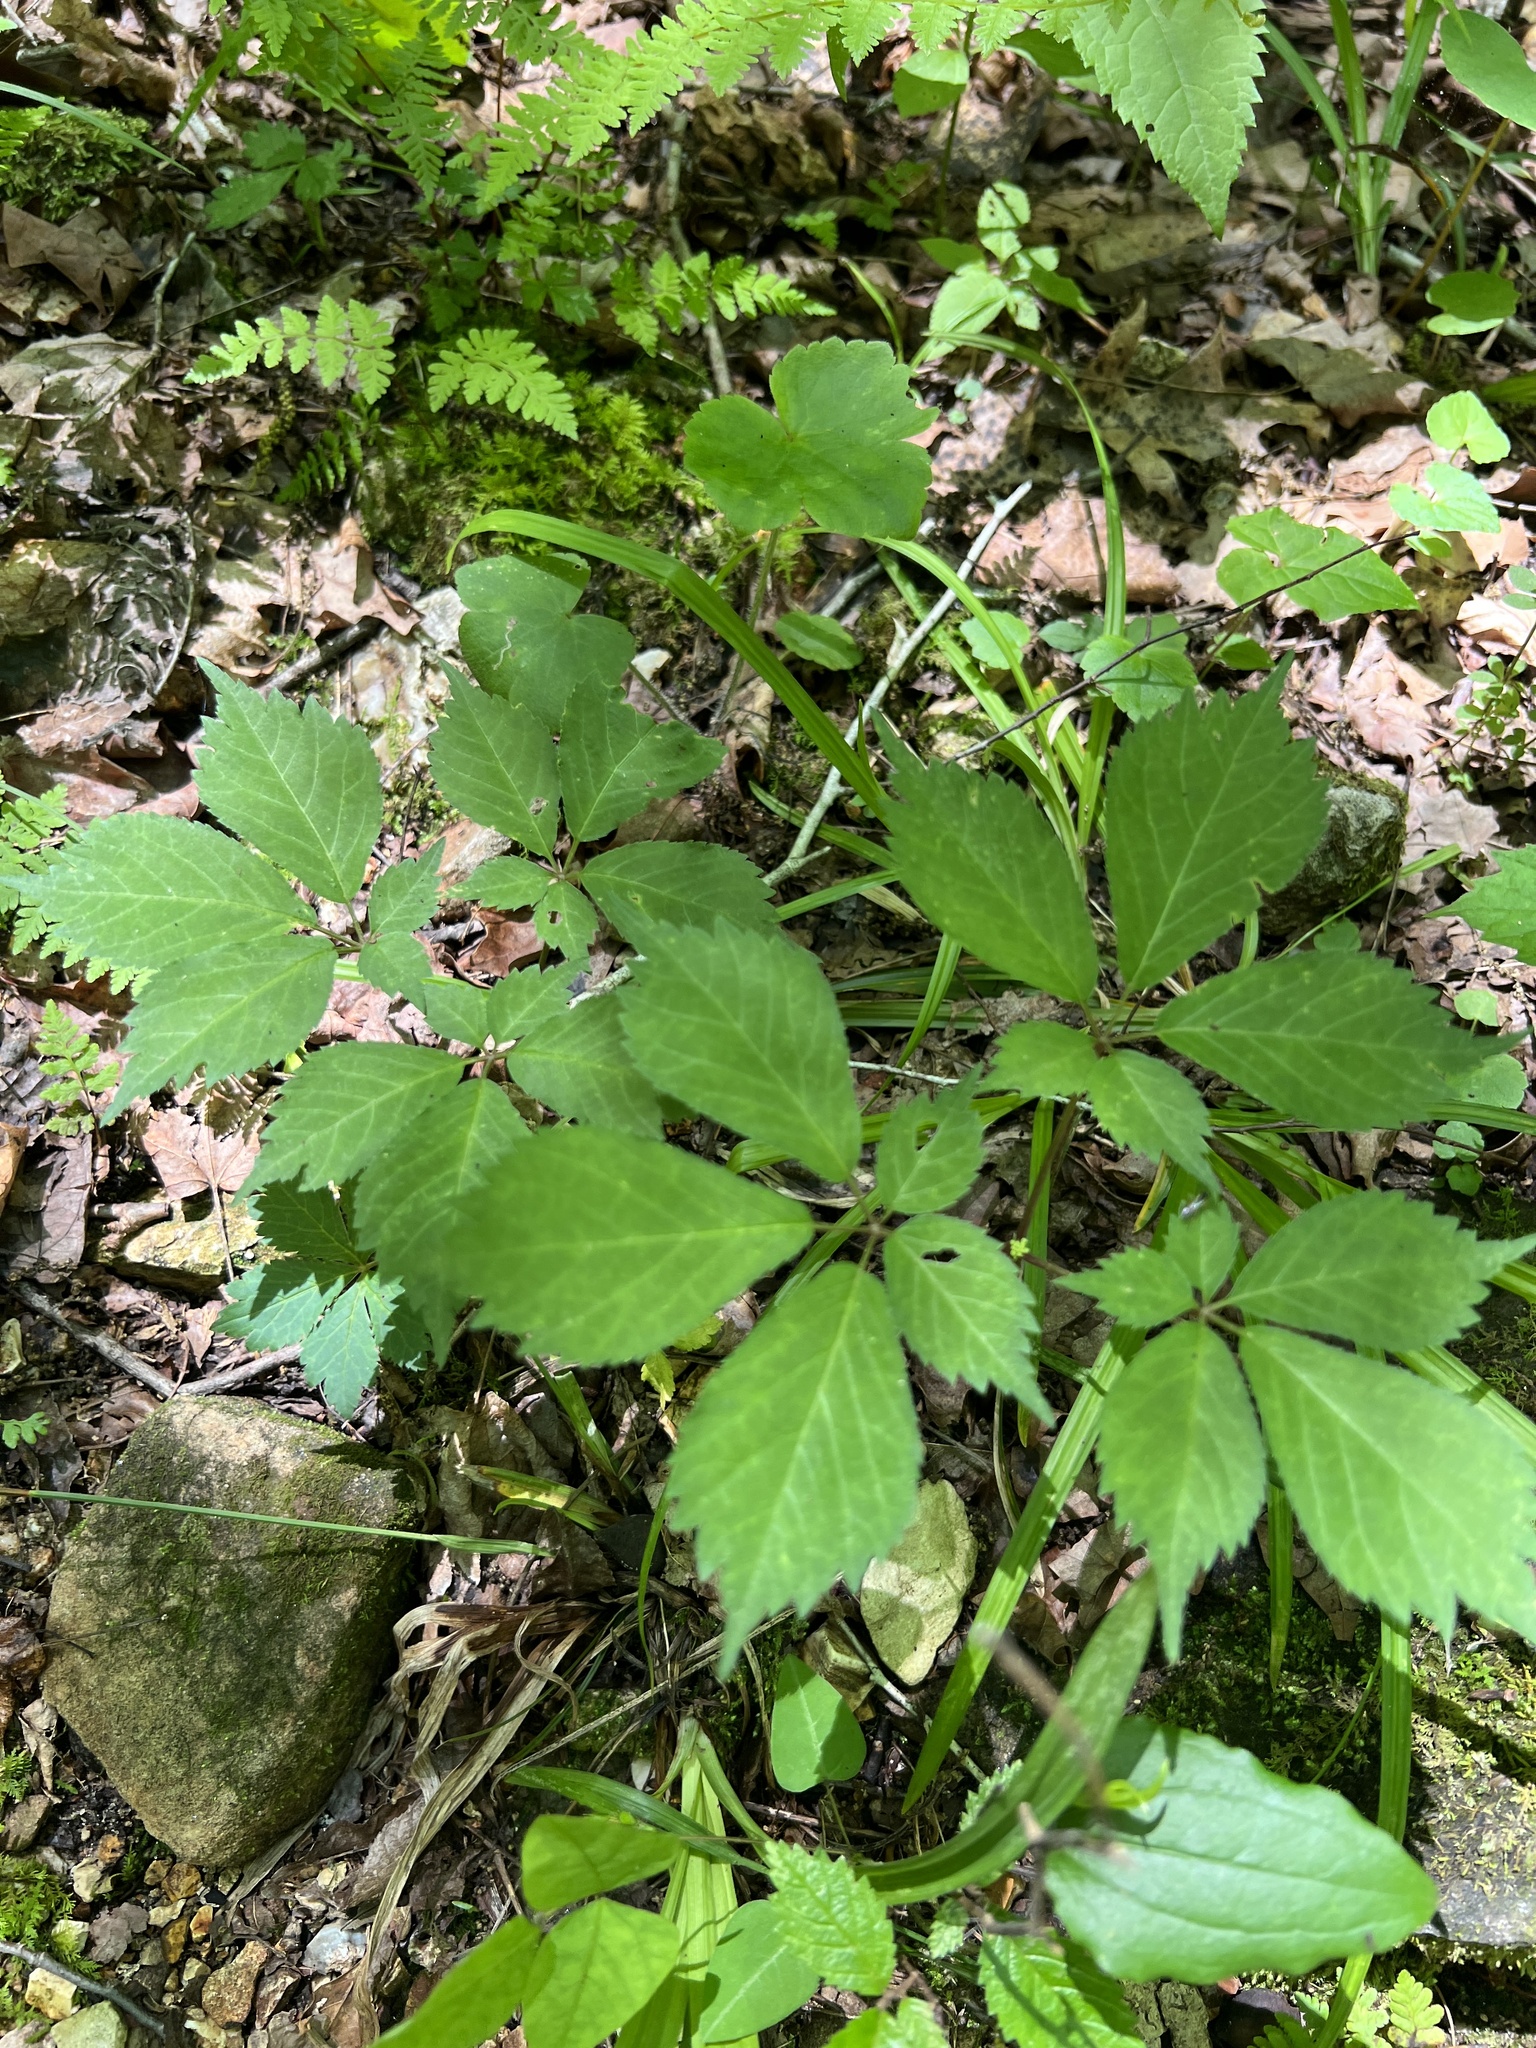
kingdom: Plantae
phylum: Tracheophyta
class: Magnoliopsida
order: Apiales
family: Araliaceae
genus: Panax
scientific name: Panax quinquefolius
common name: American ginseng
